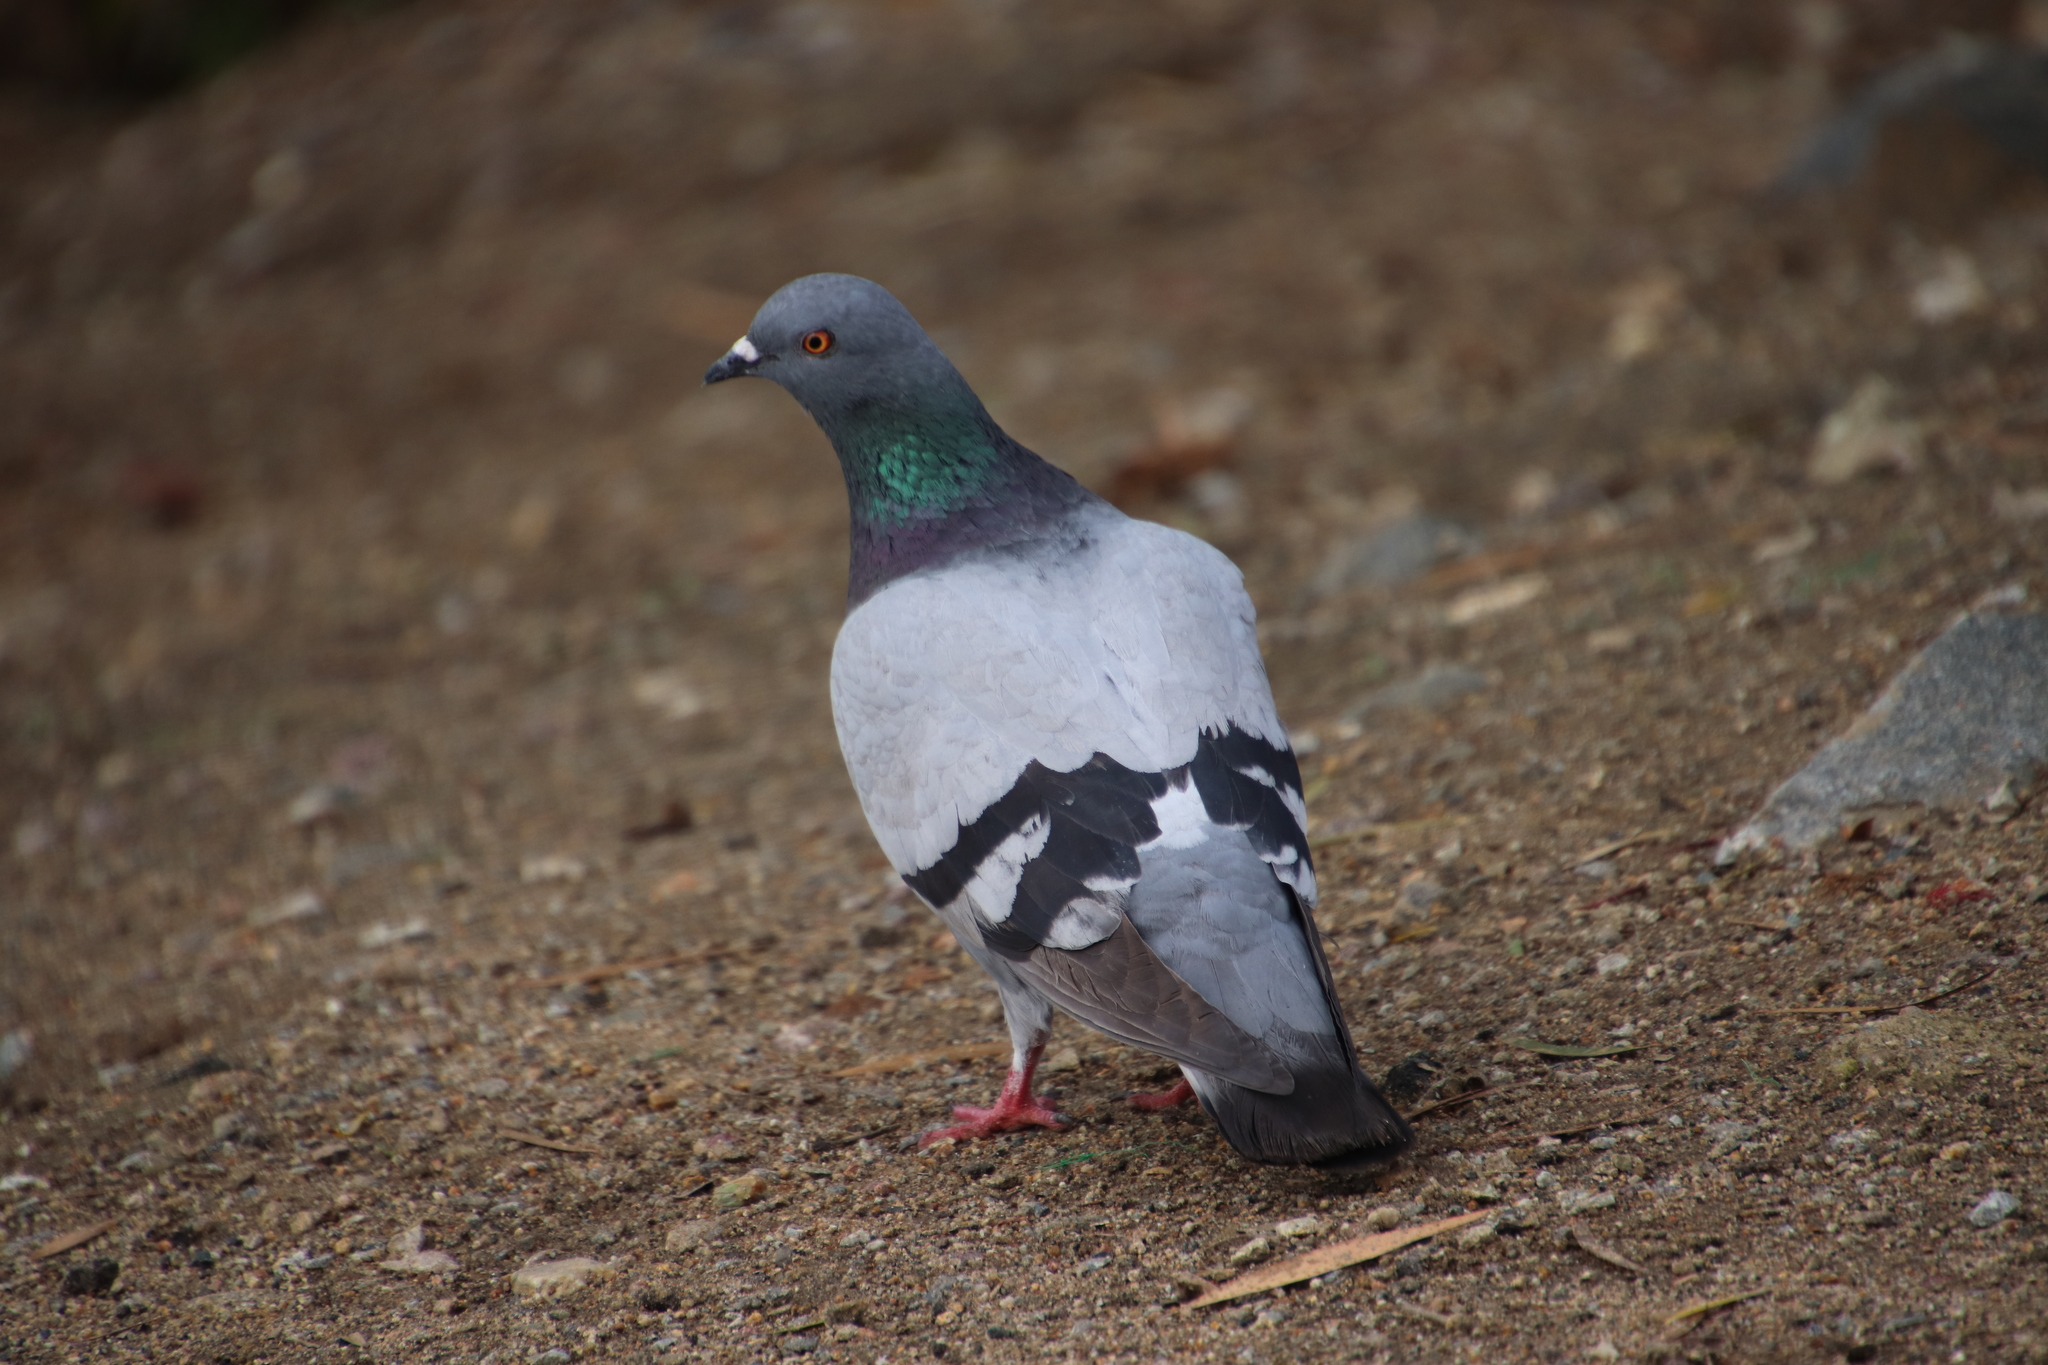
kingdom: Animalia
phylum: Chordata
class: Aves
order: Columbiformes
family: Columbidae
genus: Columba
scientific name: Columba livia
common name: Rock pigeon
